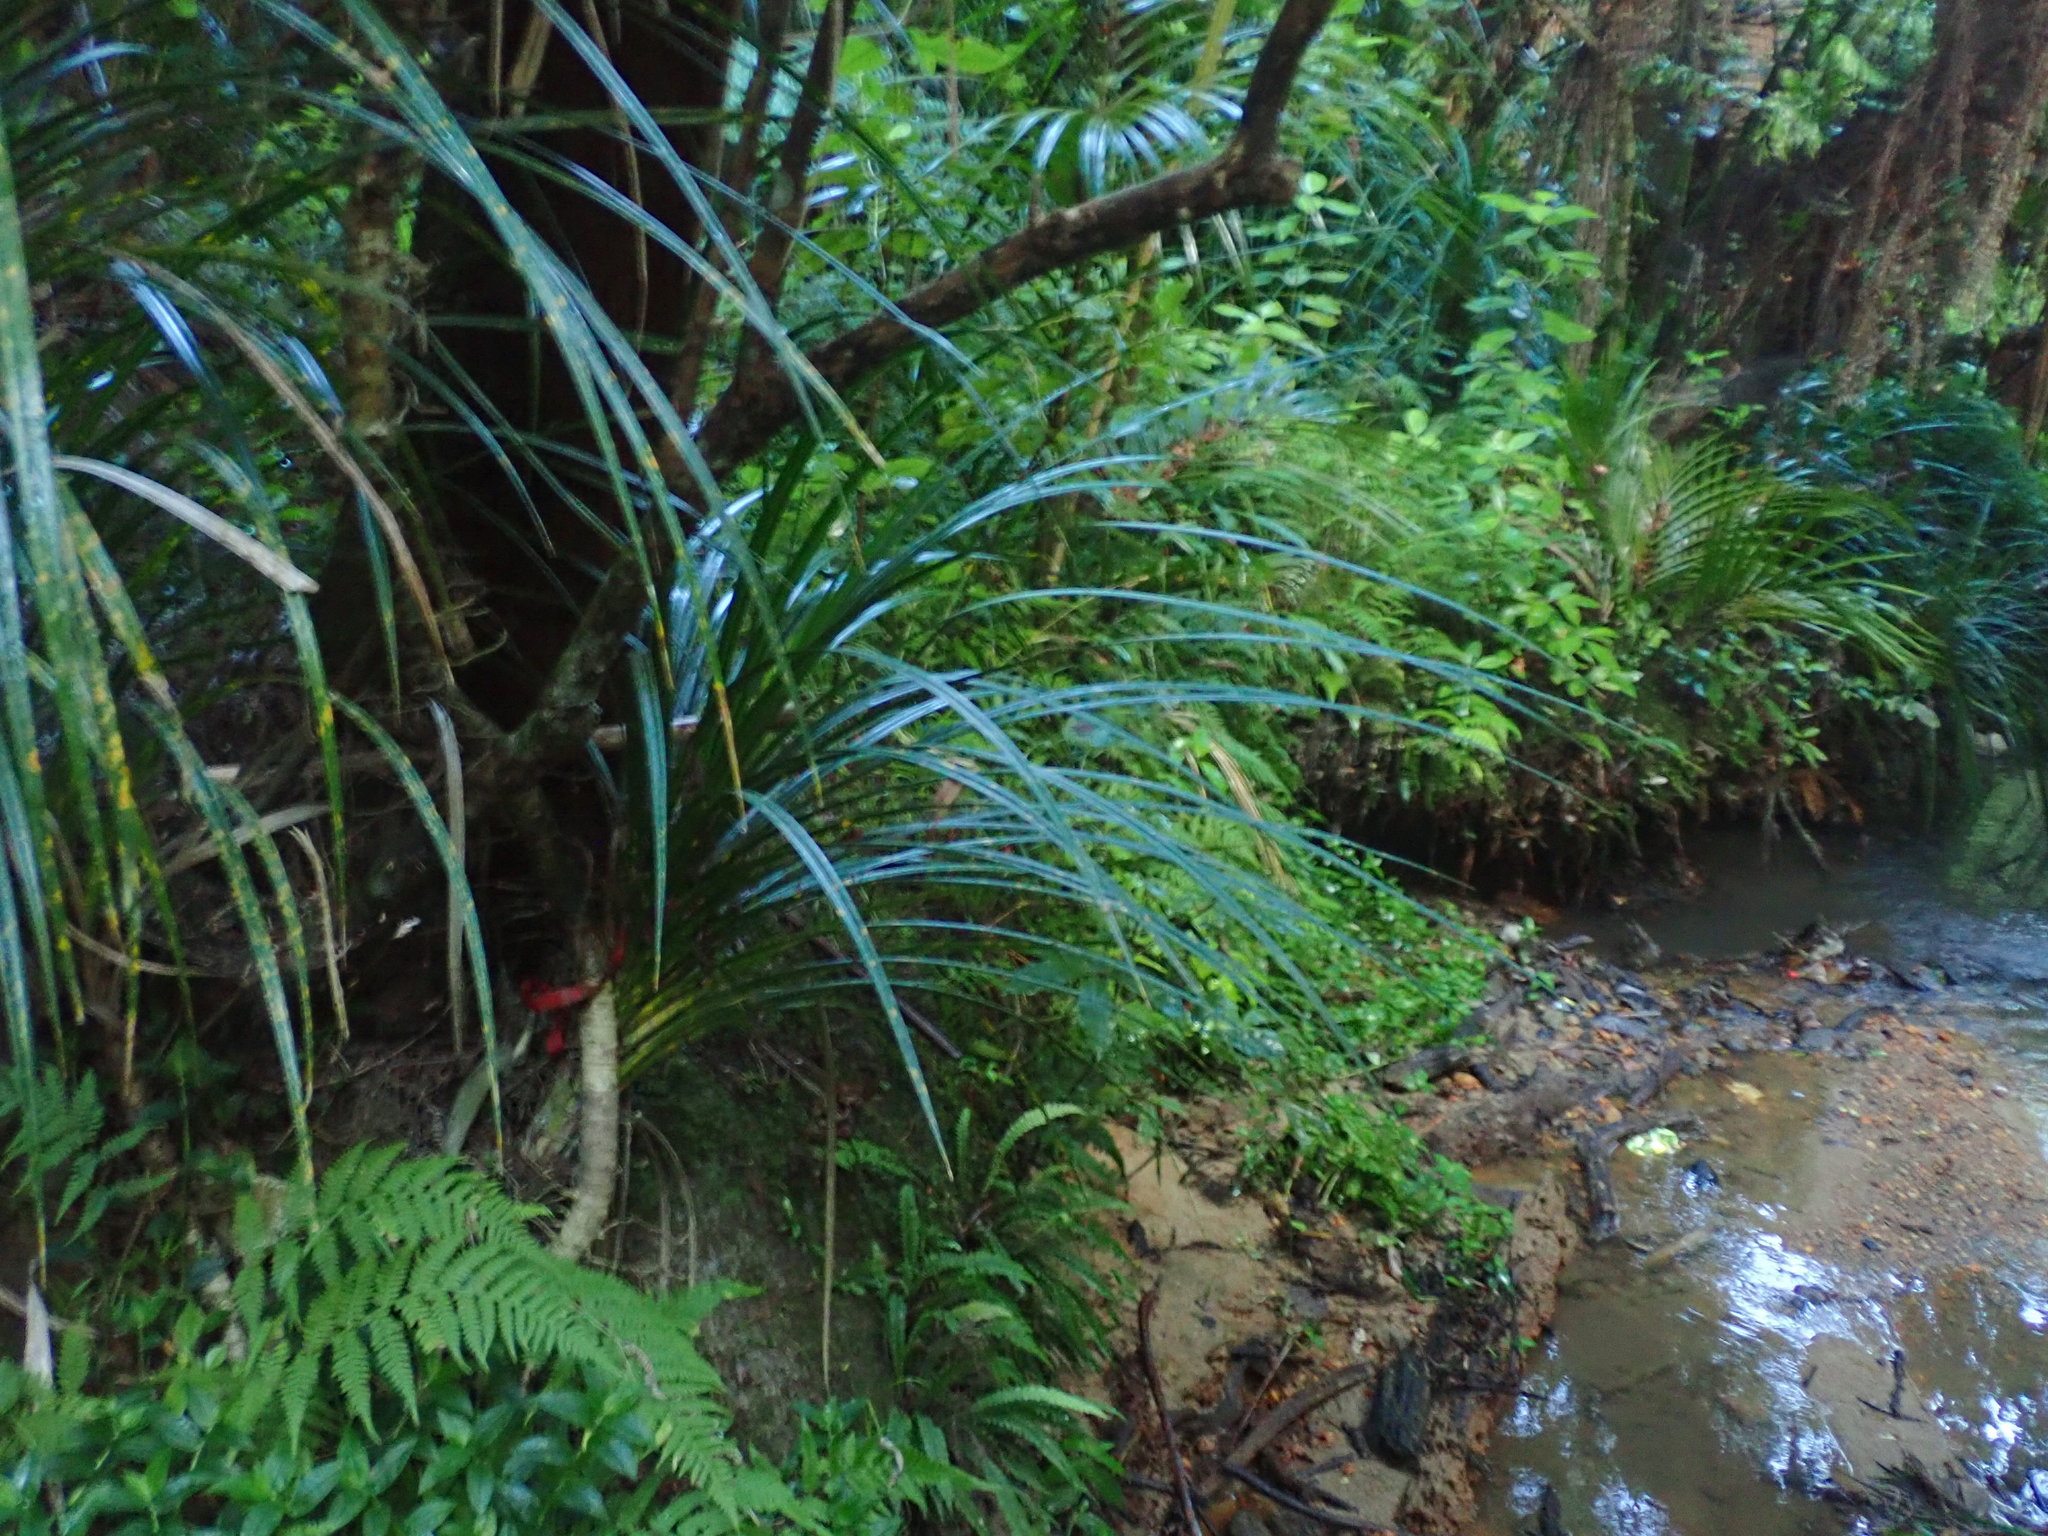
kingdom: Plantae
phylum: Tracheophyta
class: Liliopsida
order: Pandanales
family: Pandanaceae
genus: Freycinetia
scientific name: Freycinetia banksii
